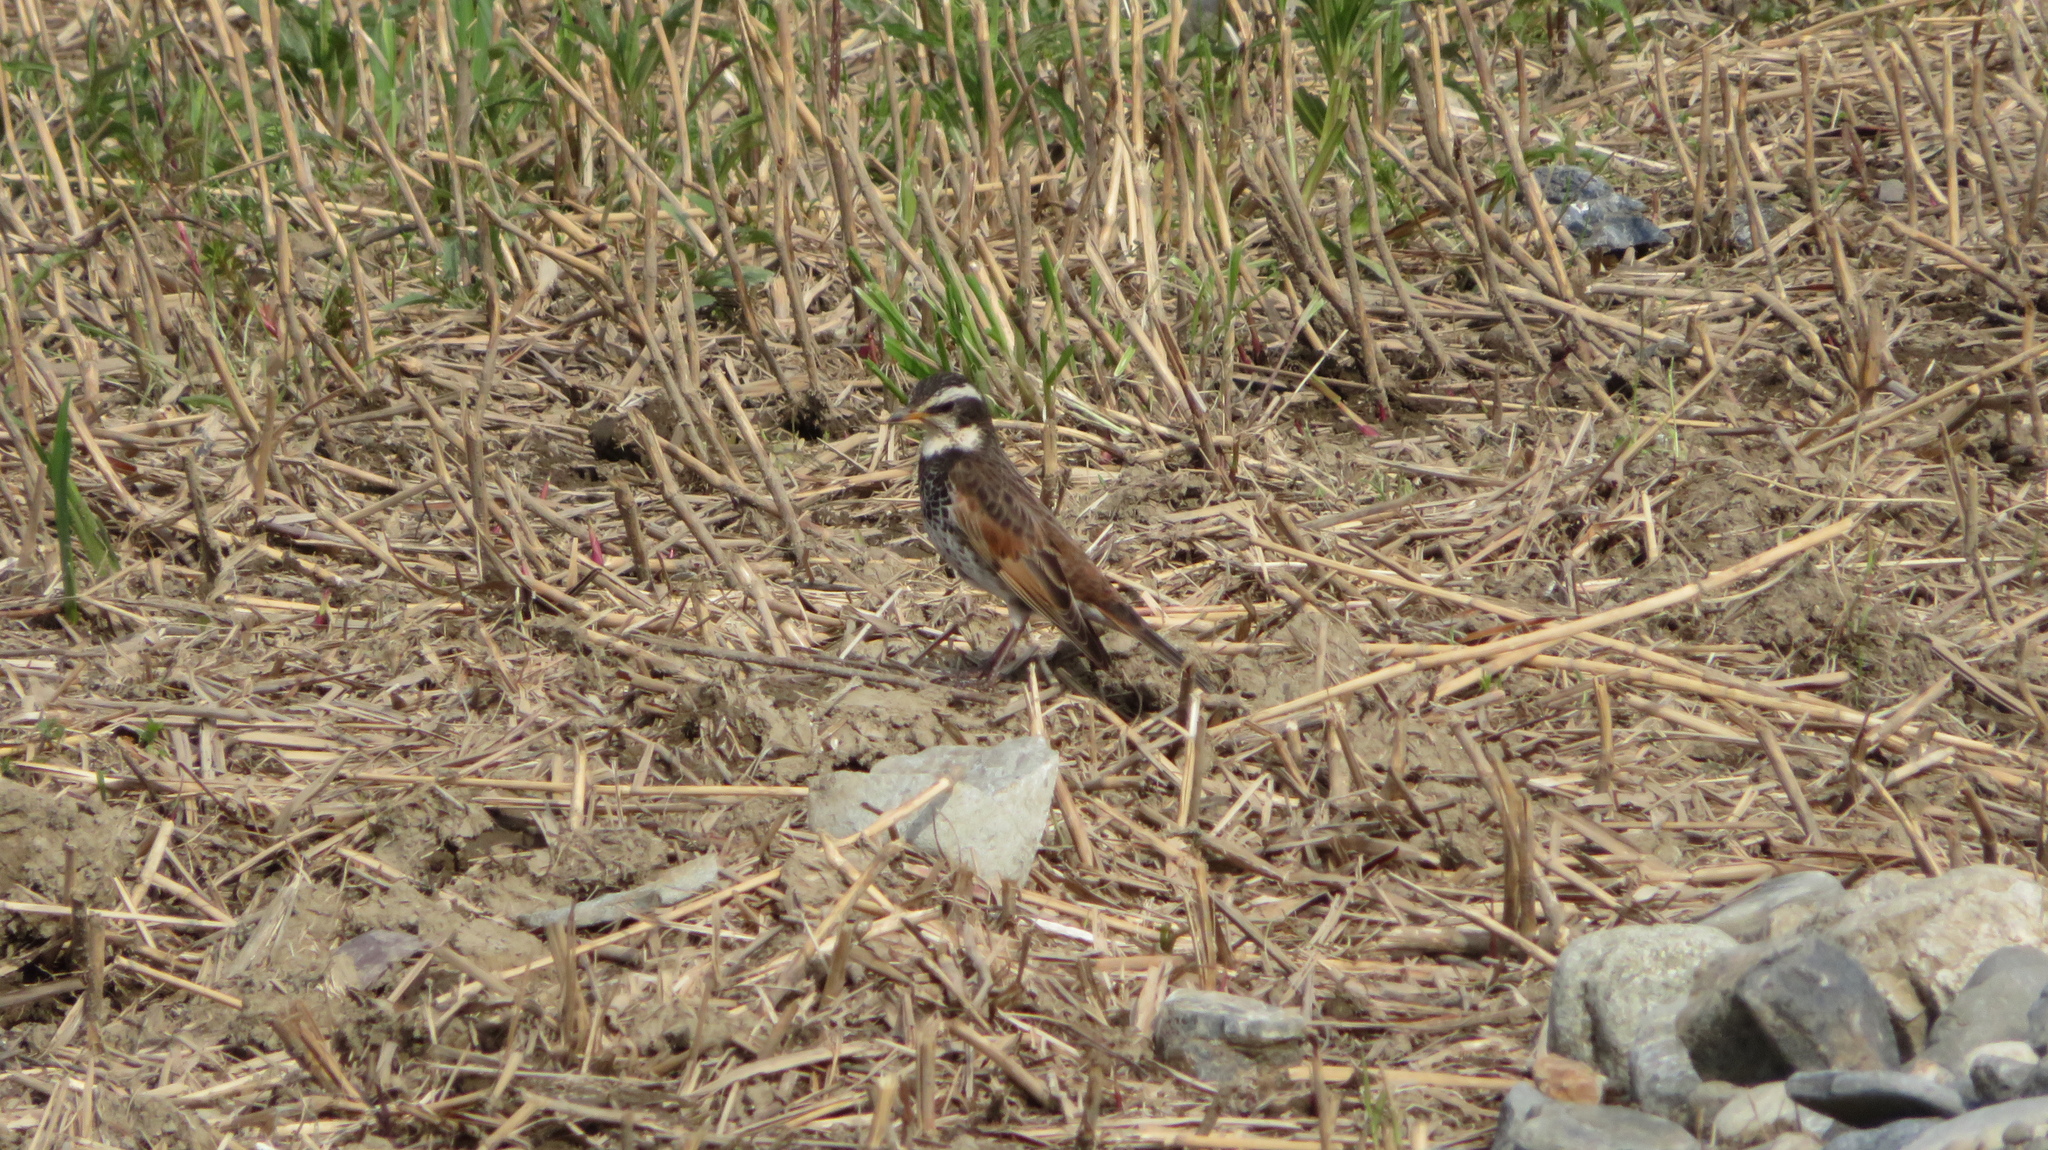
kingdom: Animalia
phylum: Chordata
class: Aves
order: Passeriformes
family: Turdidae
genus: Turdus
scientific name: Turdus eunomus
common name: Dusky thrush
